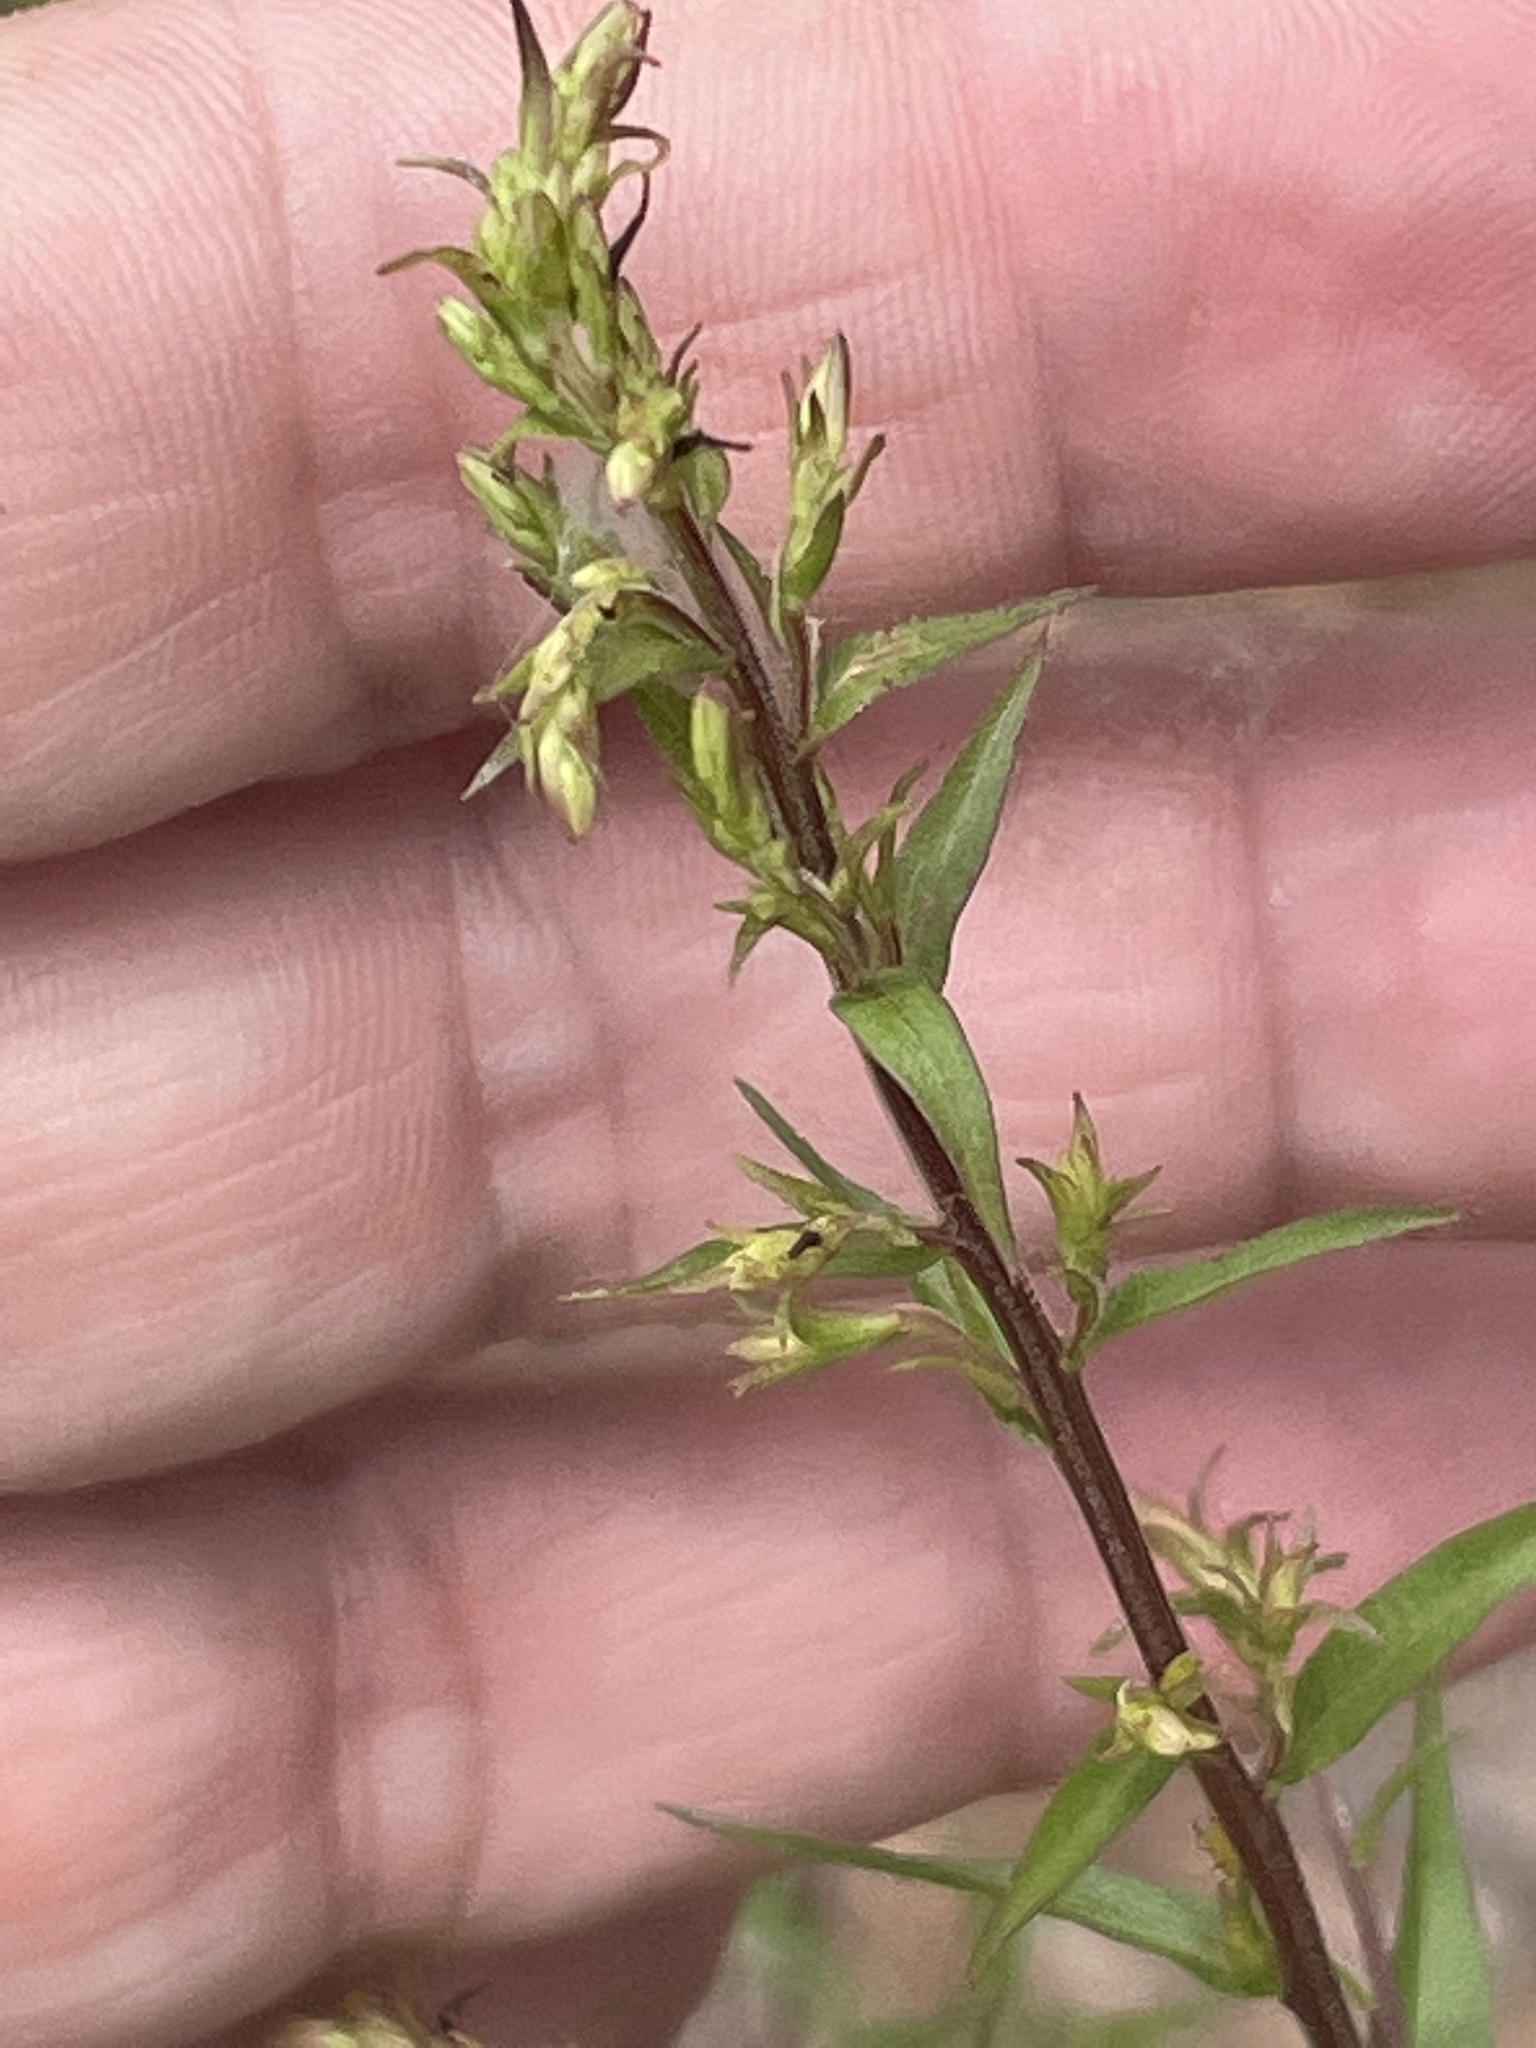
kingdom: Plantae
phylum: Tracheophyta
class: Magnoliopsida
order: Asterales
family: Asteraceae
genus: Solidago
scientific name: Solidago odora
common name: Anise-scented goldenrod
